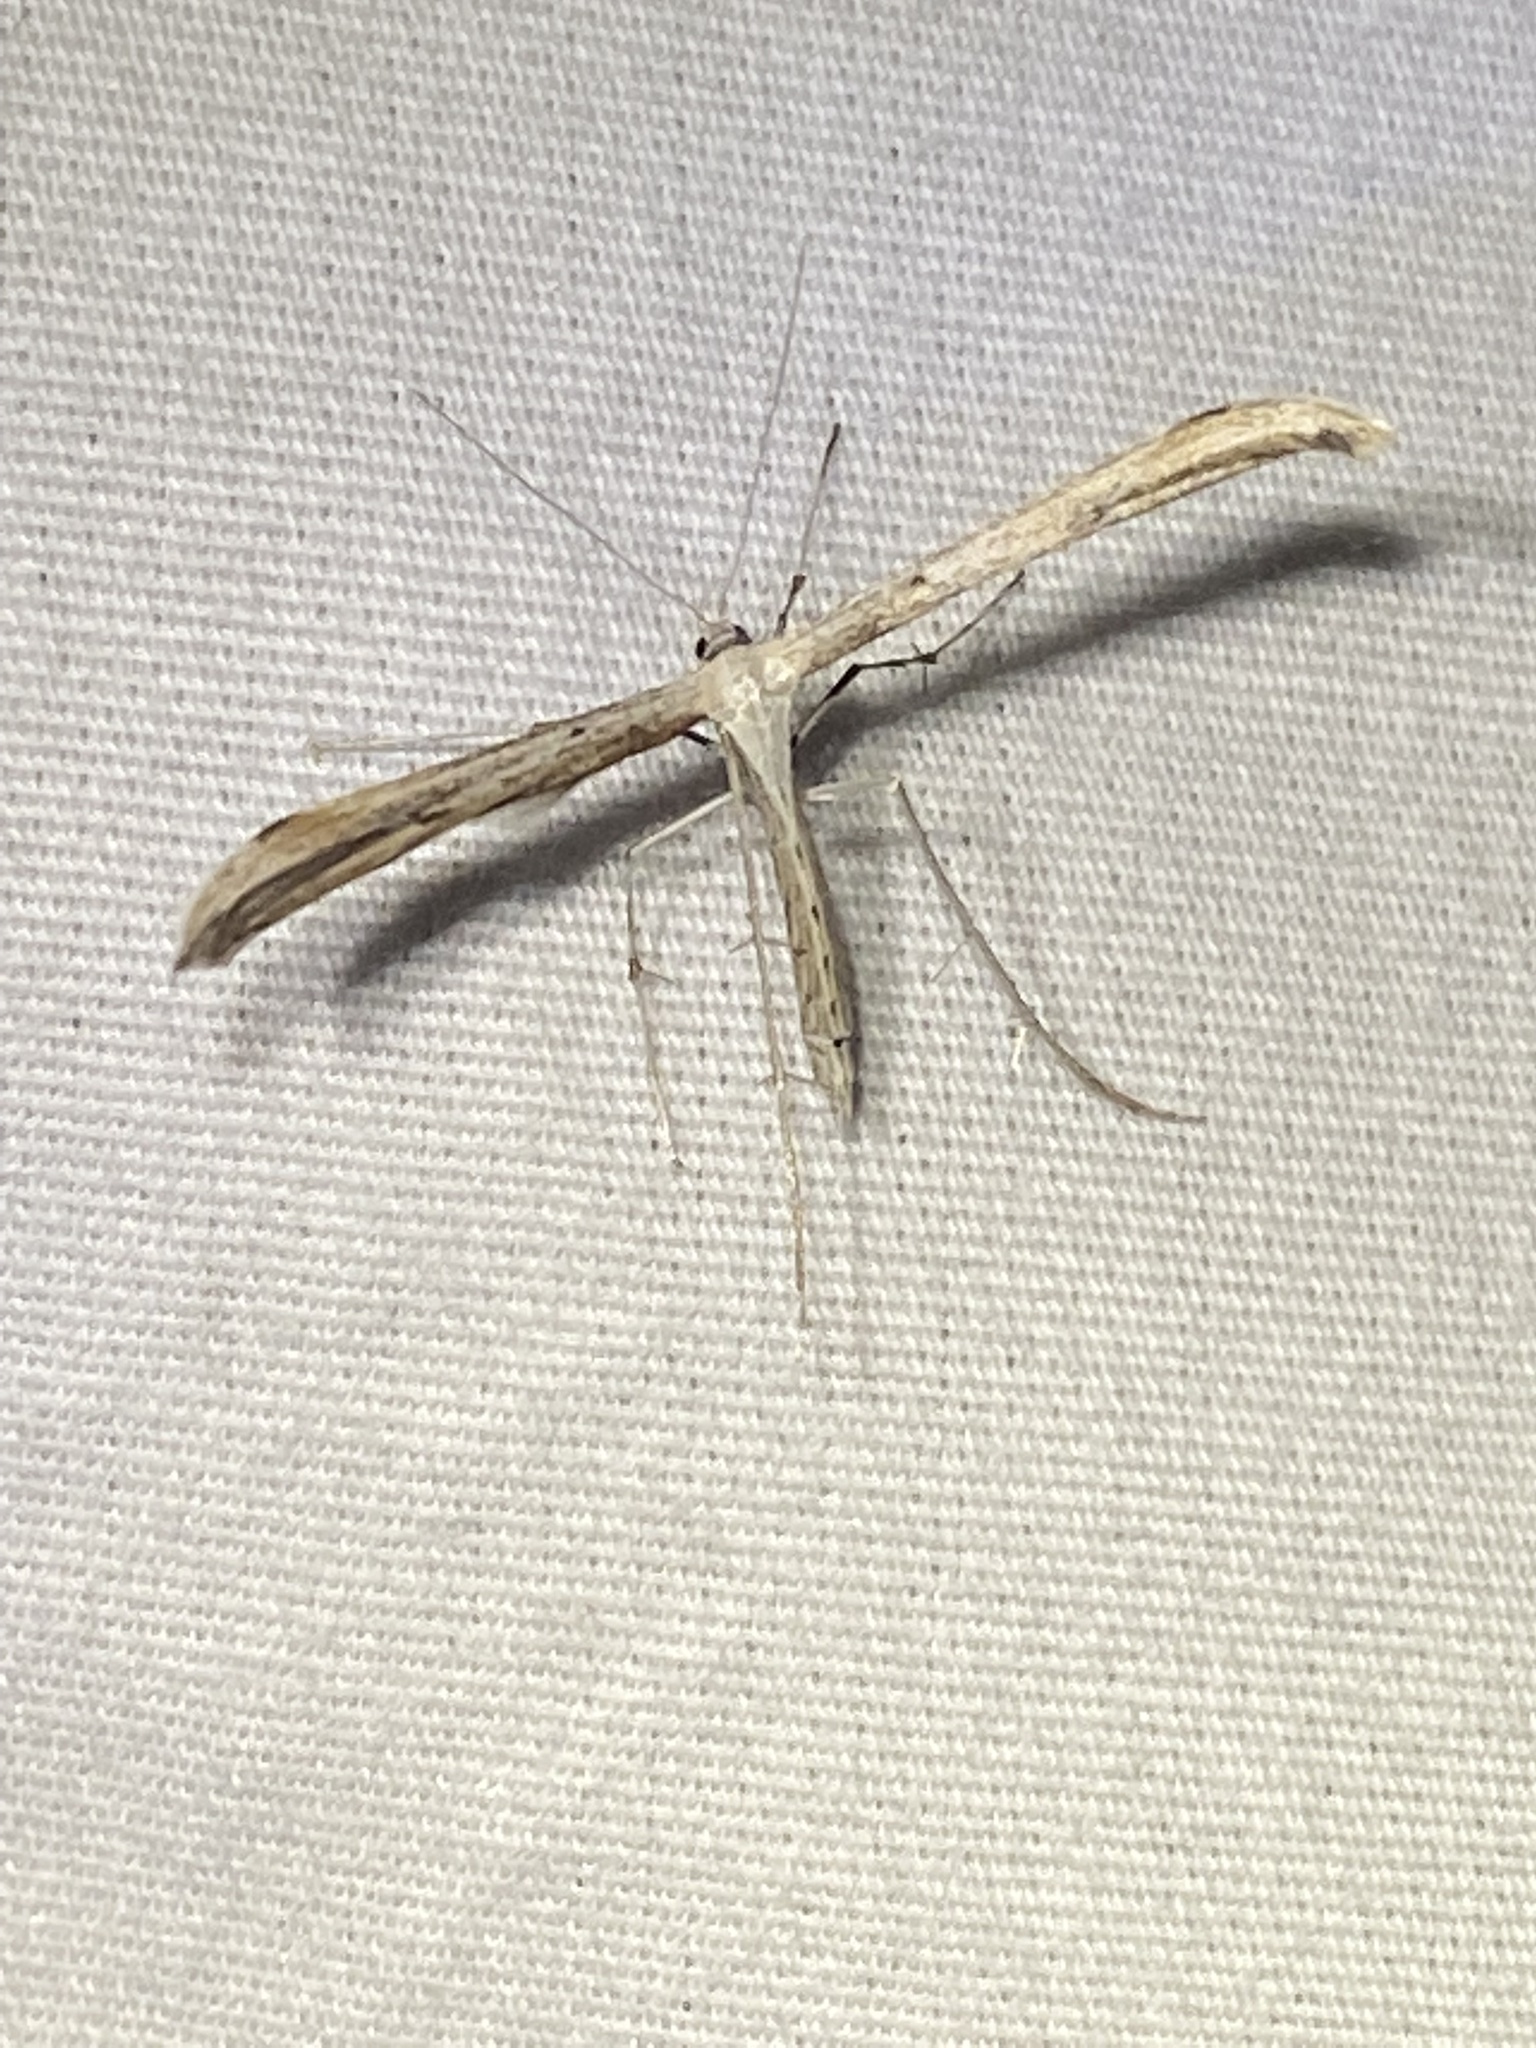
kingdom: Animalia
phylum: Arthropoda
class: Insecta
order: Lepidoptera
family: Pterophoridae
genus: Emmelina
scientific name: Emmelina monodactyla
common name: Common plume
